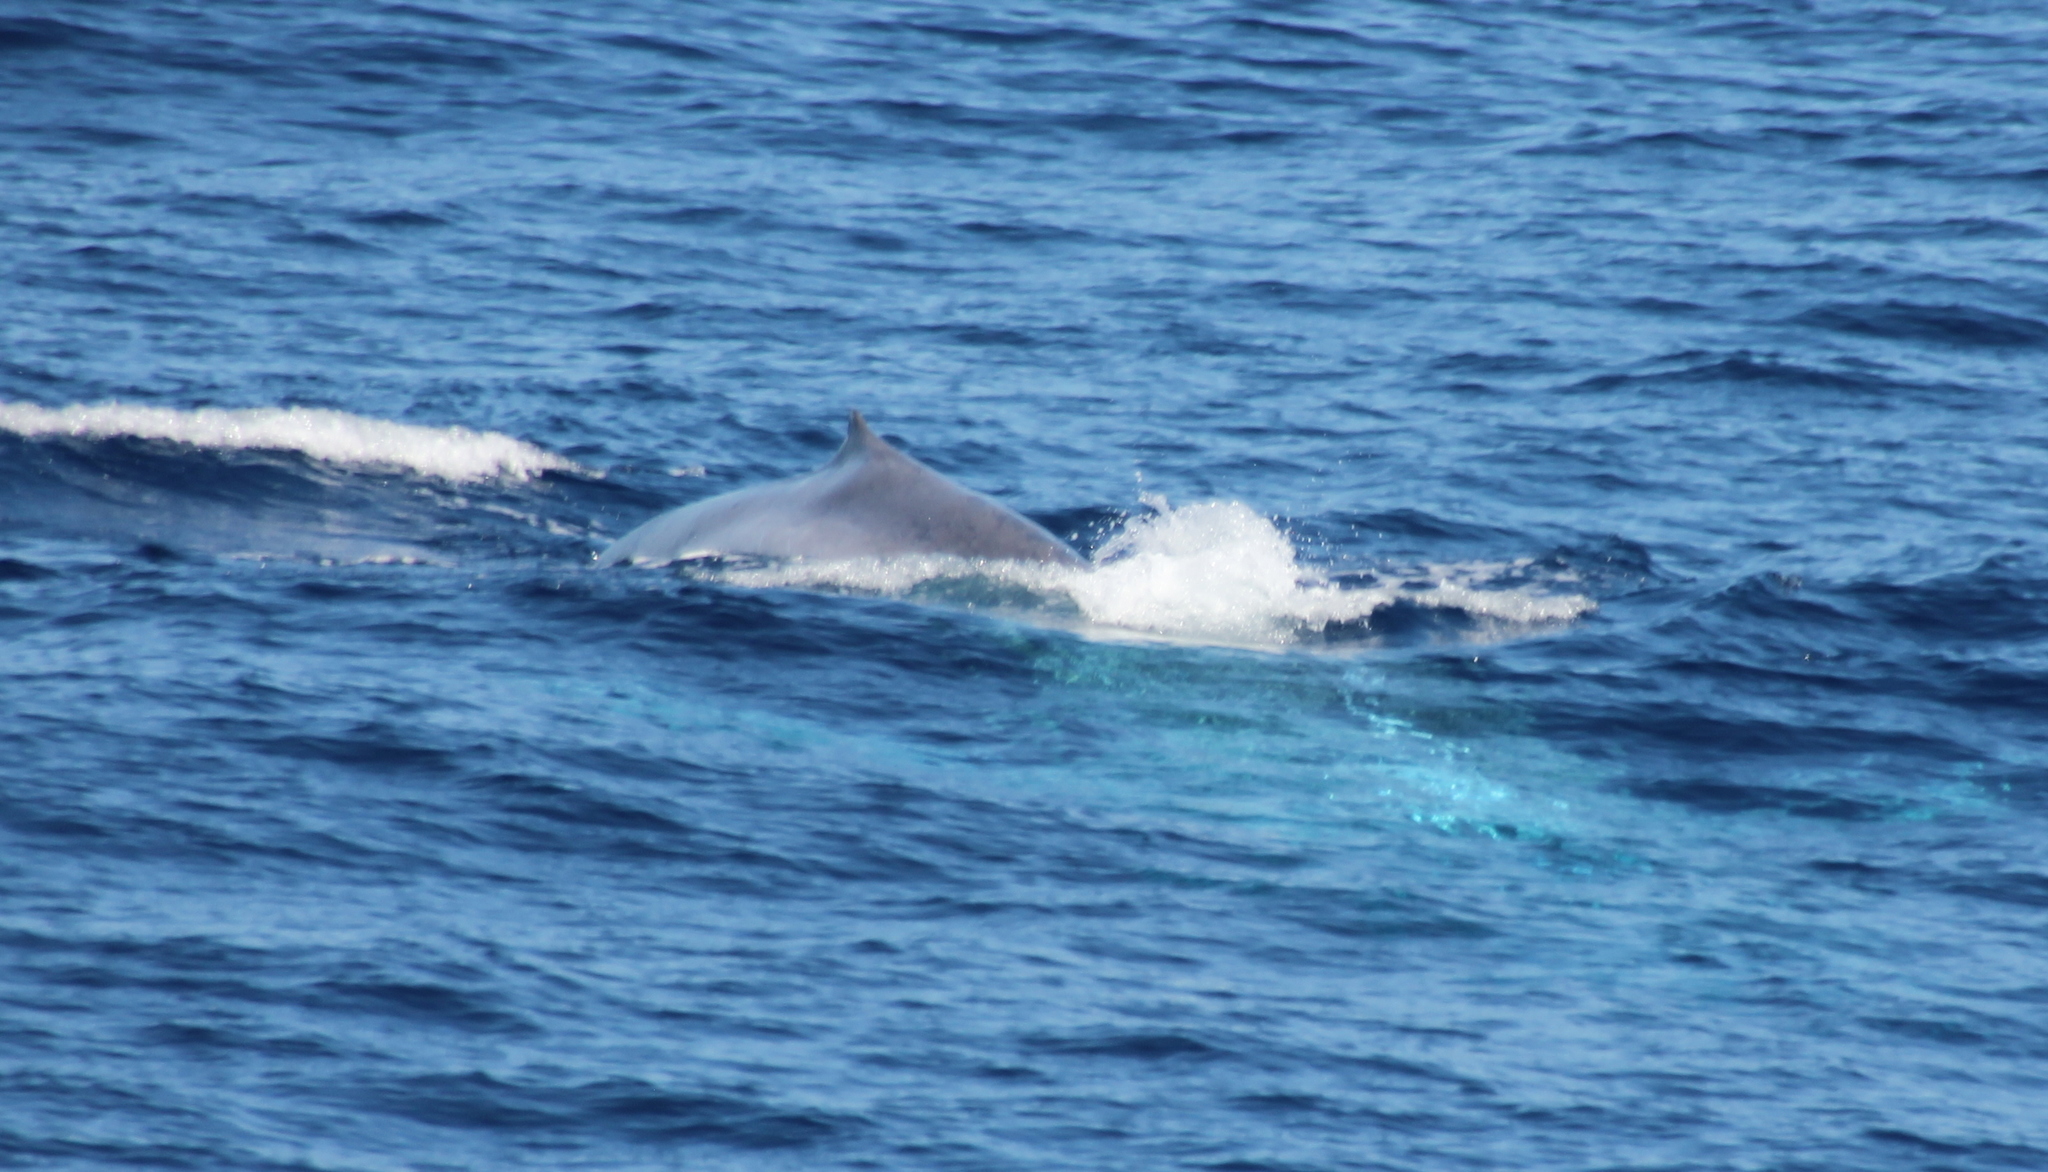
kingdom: Animalia
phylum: Chordata
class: Mammalia
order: Cetacea
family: Balaenopteridae
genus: Balaenoptera
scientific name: Balaenoptera musculus
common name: Blue whale
